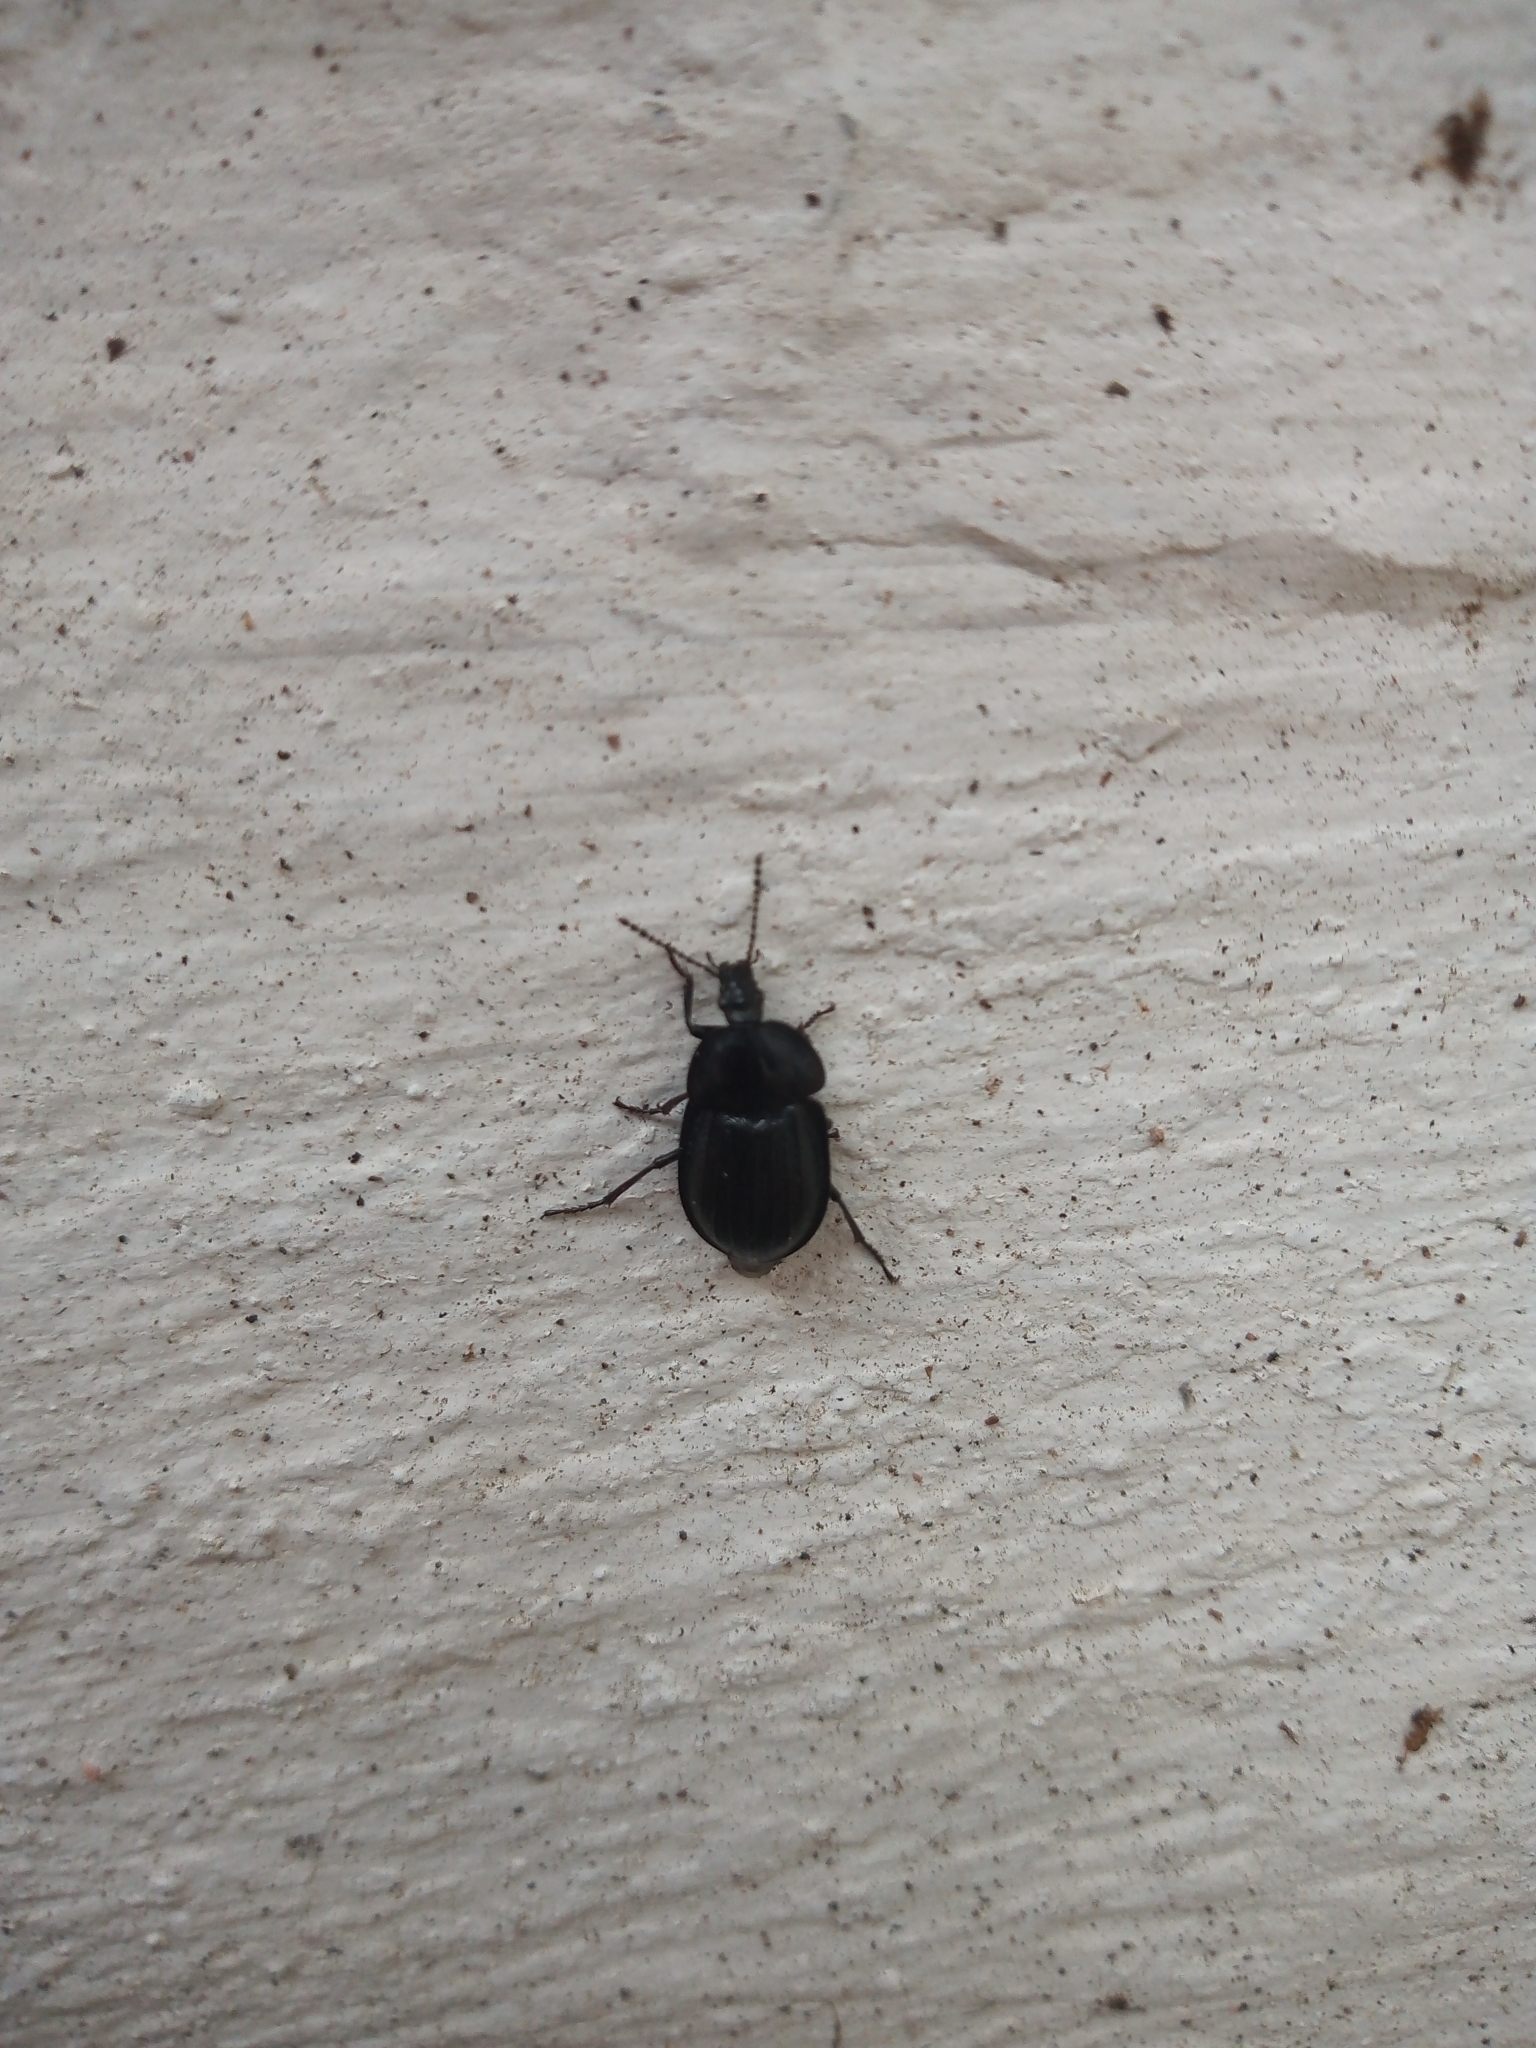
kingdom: Animalia
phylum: Arthropoda
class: Insecta
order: Coleoptera
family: Staphylinidae
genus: Silpha
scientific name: Silpha atrata
